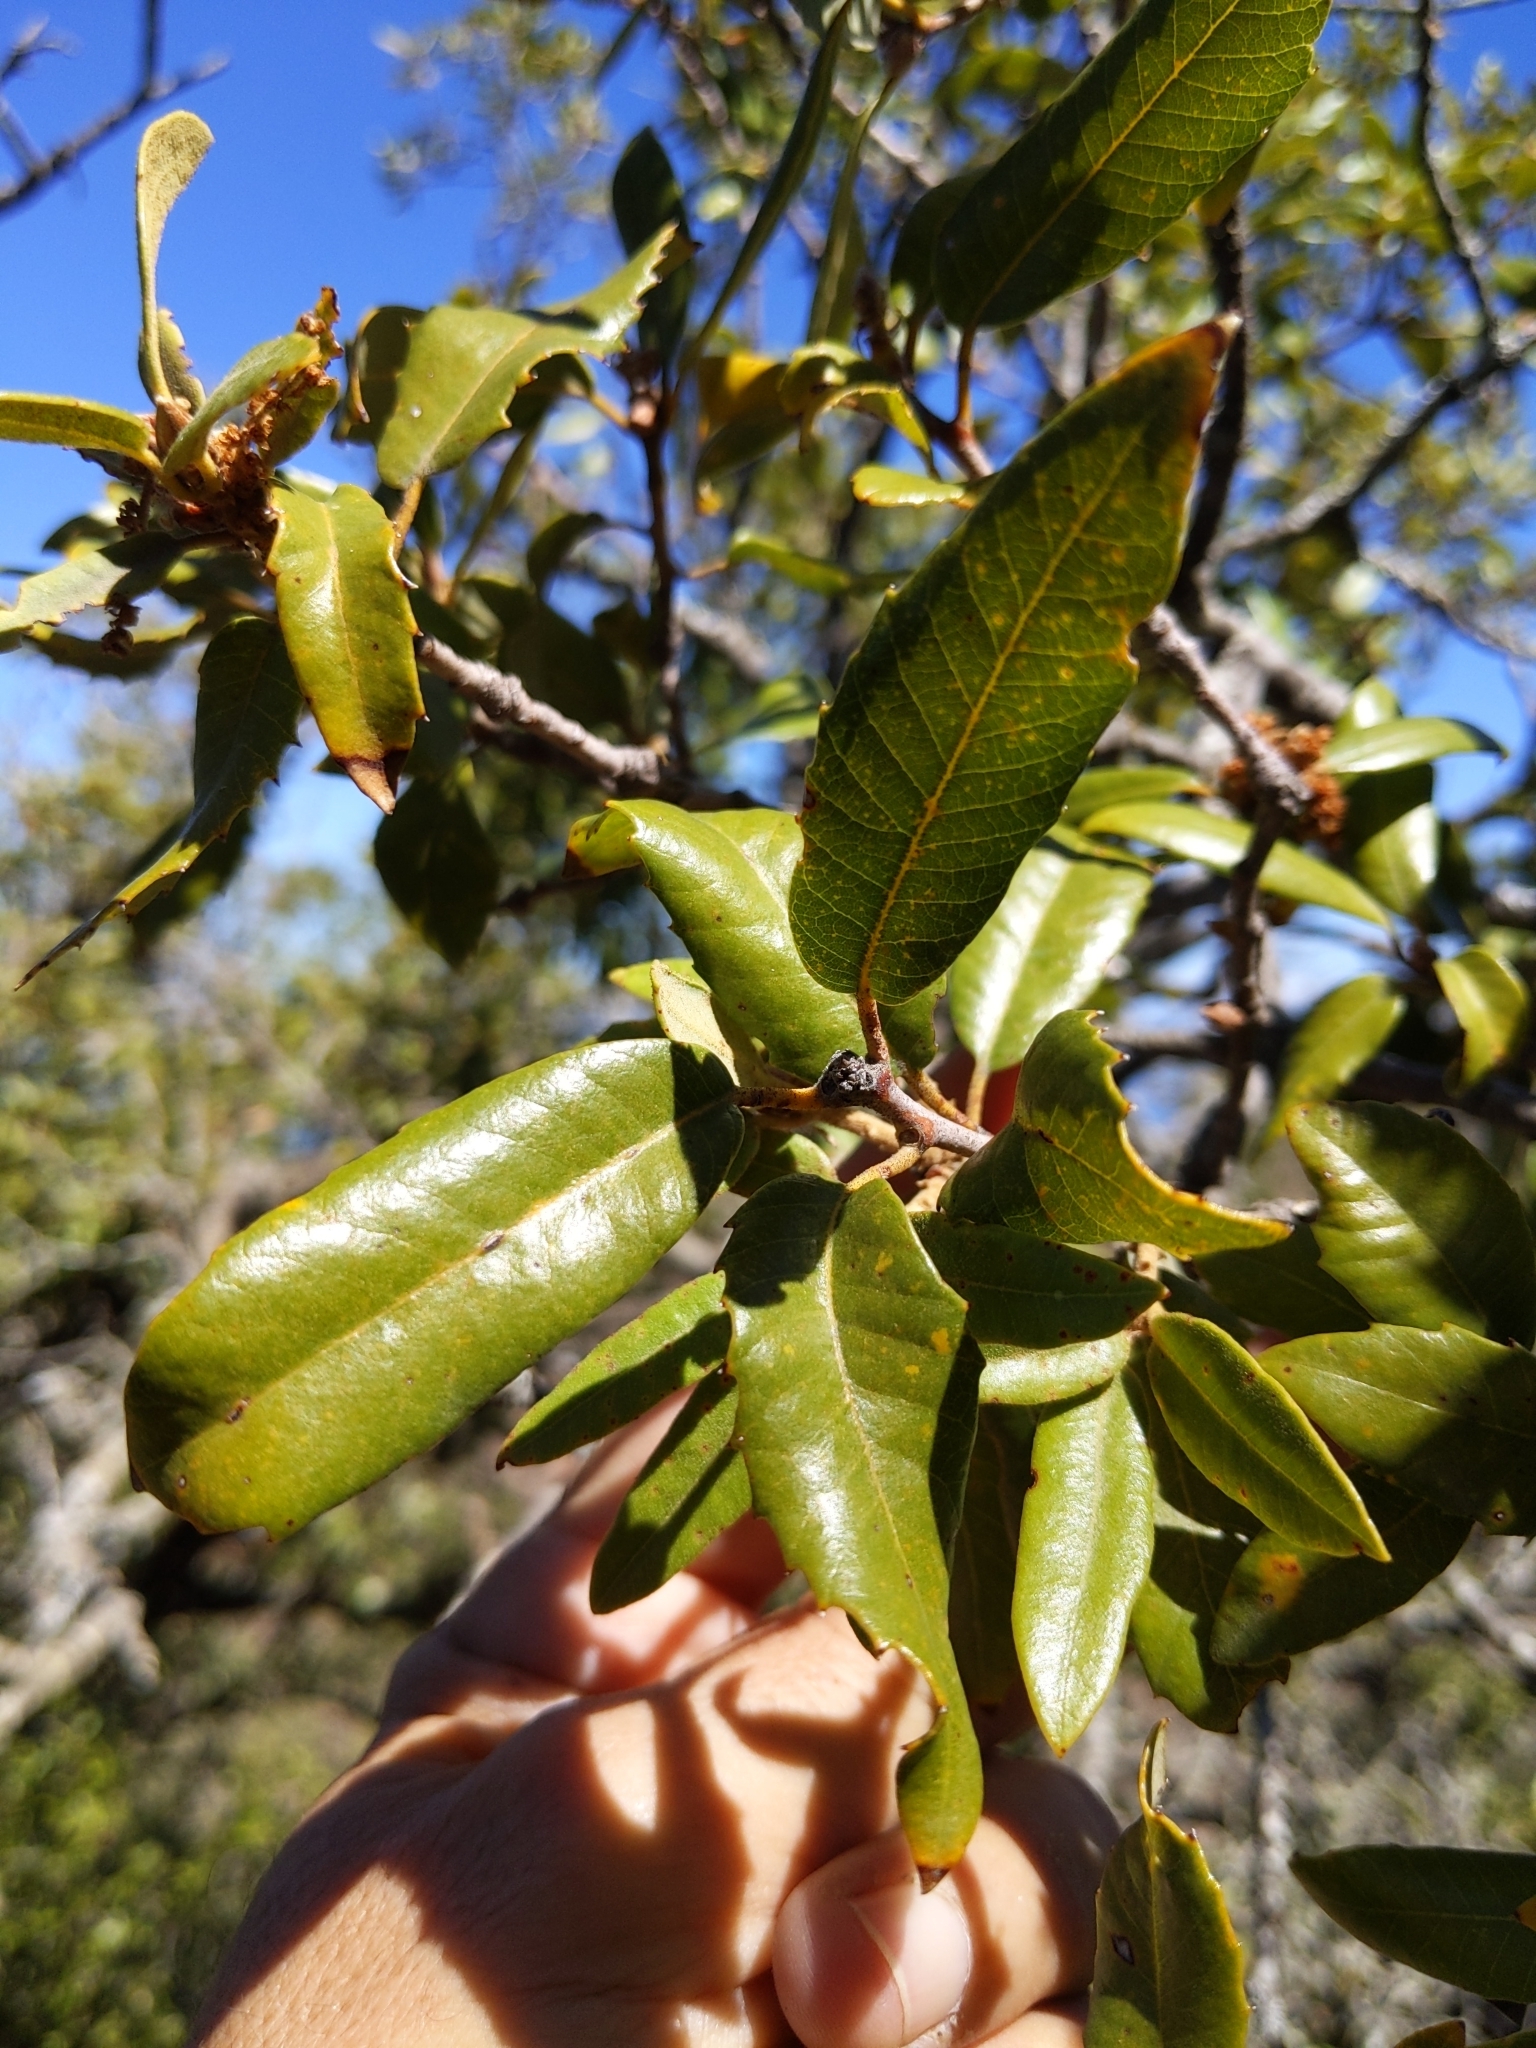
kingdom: Plantae
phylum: Tracheophyta
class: Magnoliopsida
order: Fagales
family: Fagaceae
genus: Quercus
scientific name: Quercus chrysolepis
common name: Canyon live oak
